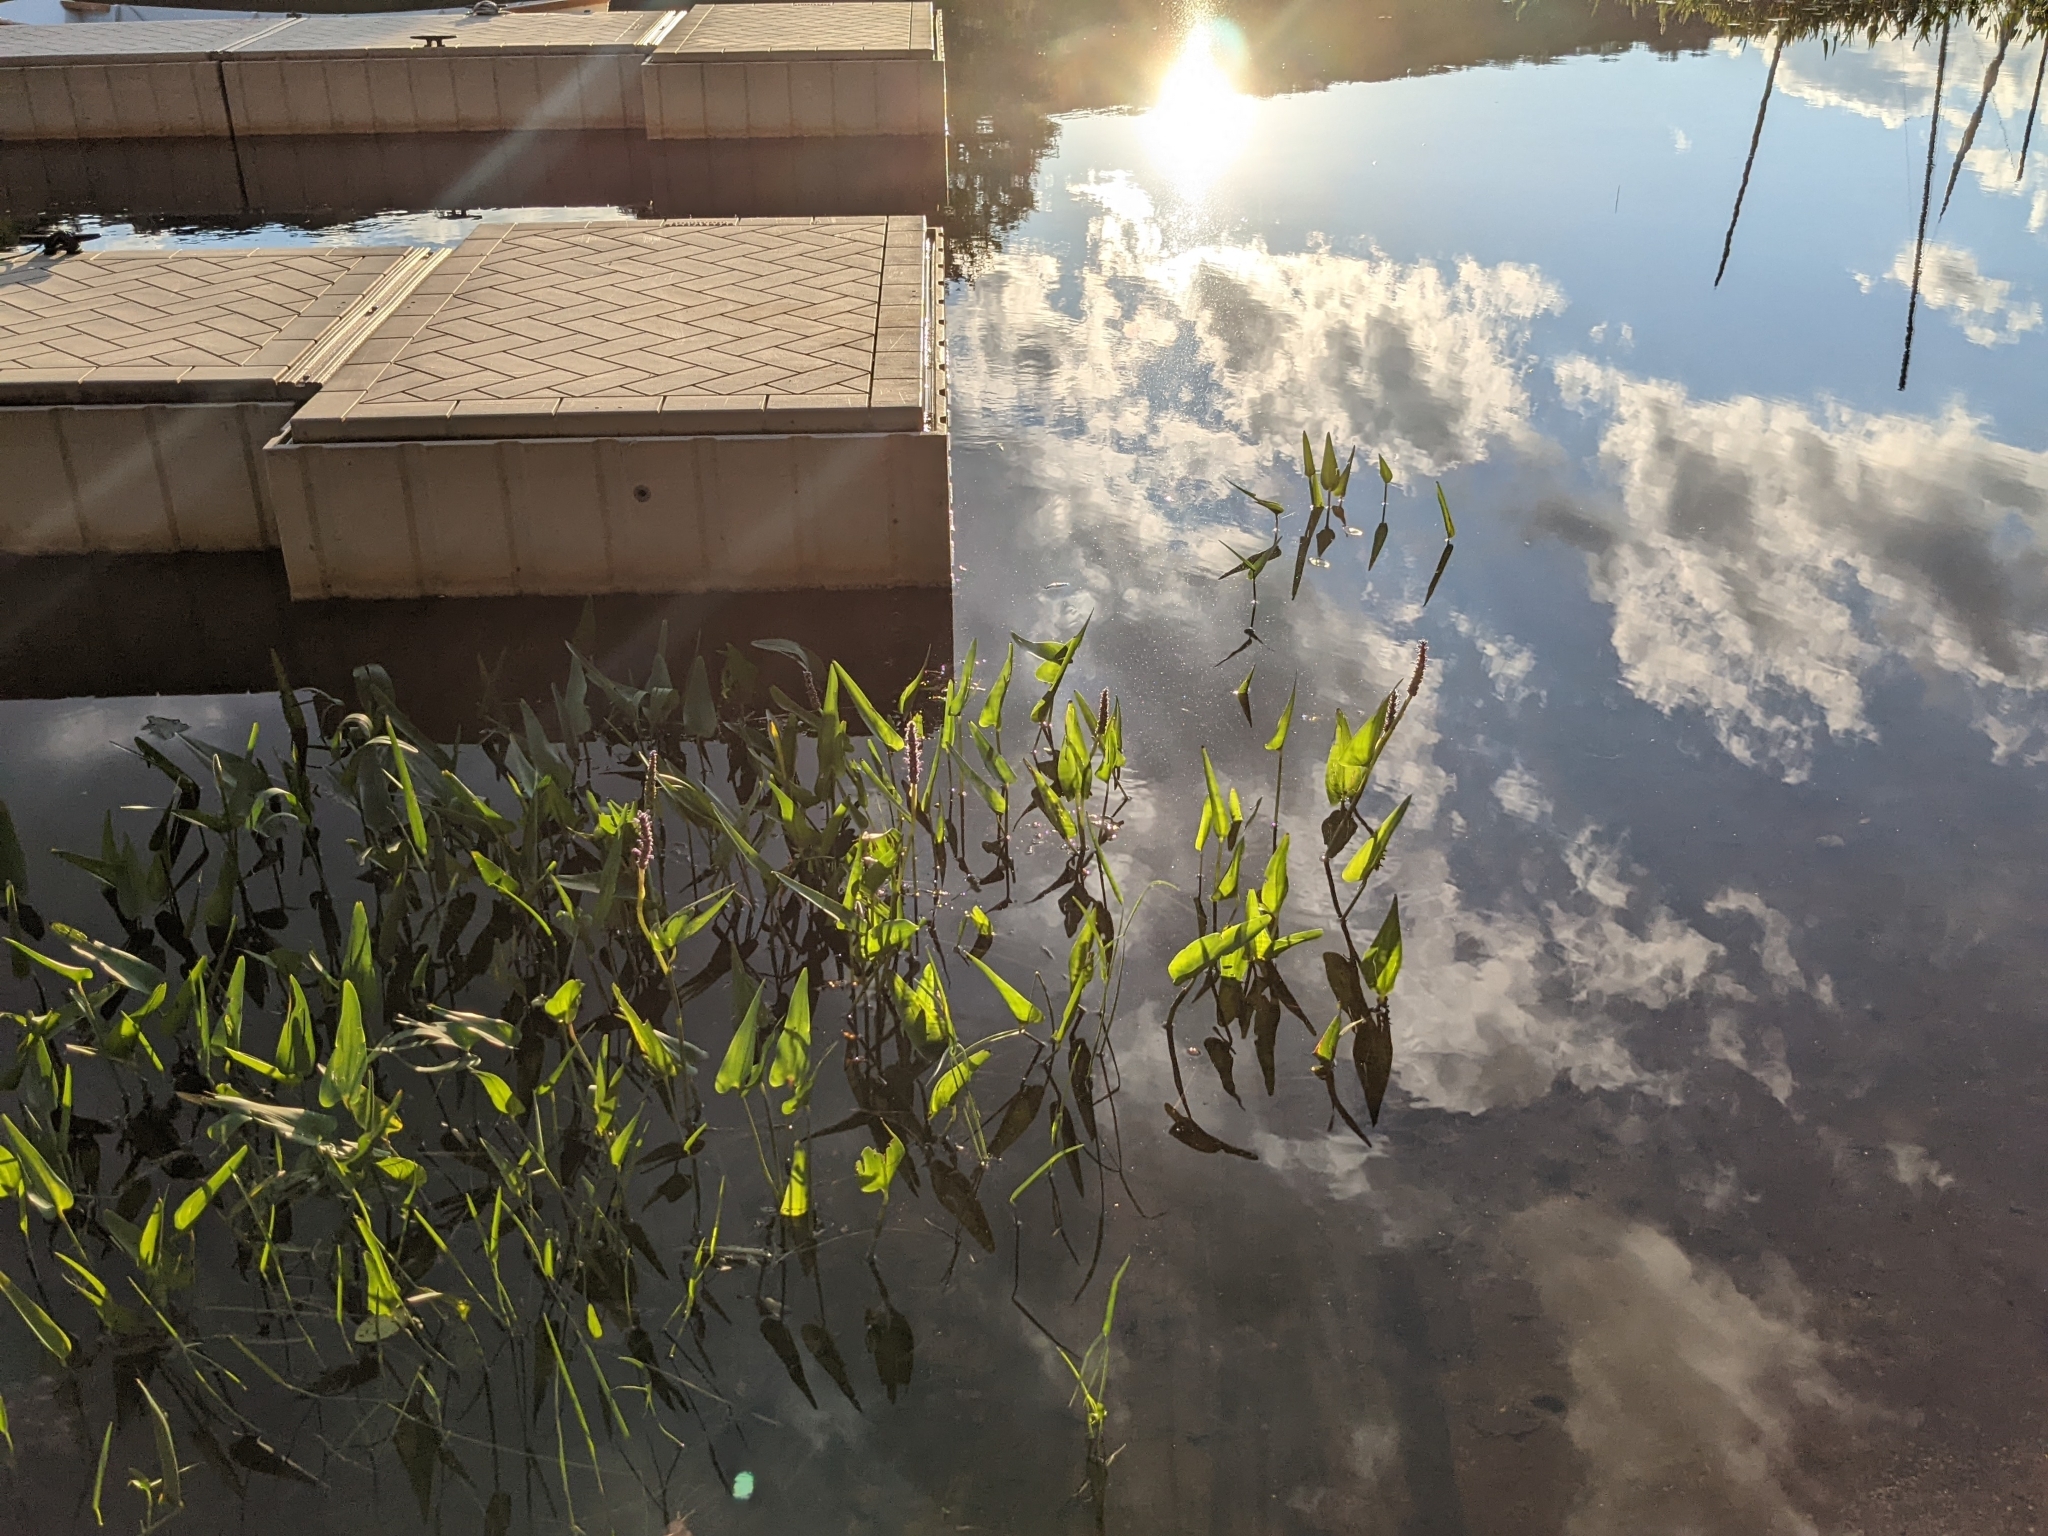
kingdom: Plantae
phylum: Tracheophyta
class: Liliopsida
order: Commelinales
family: Pontederiaceae
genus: Pontederia
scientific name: Pontederia cordata
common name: Pickerelweed
